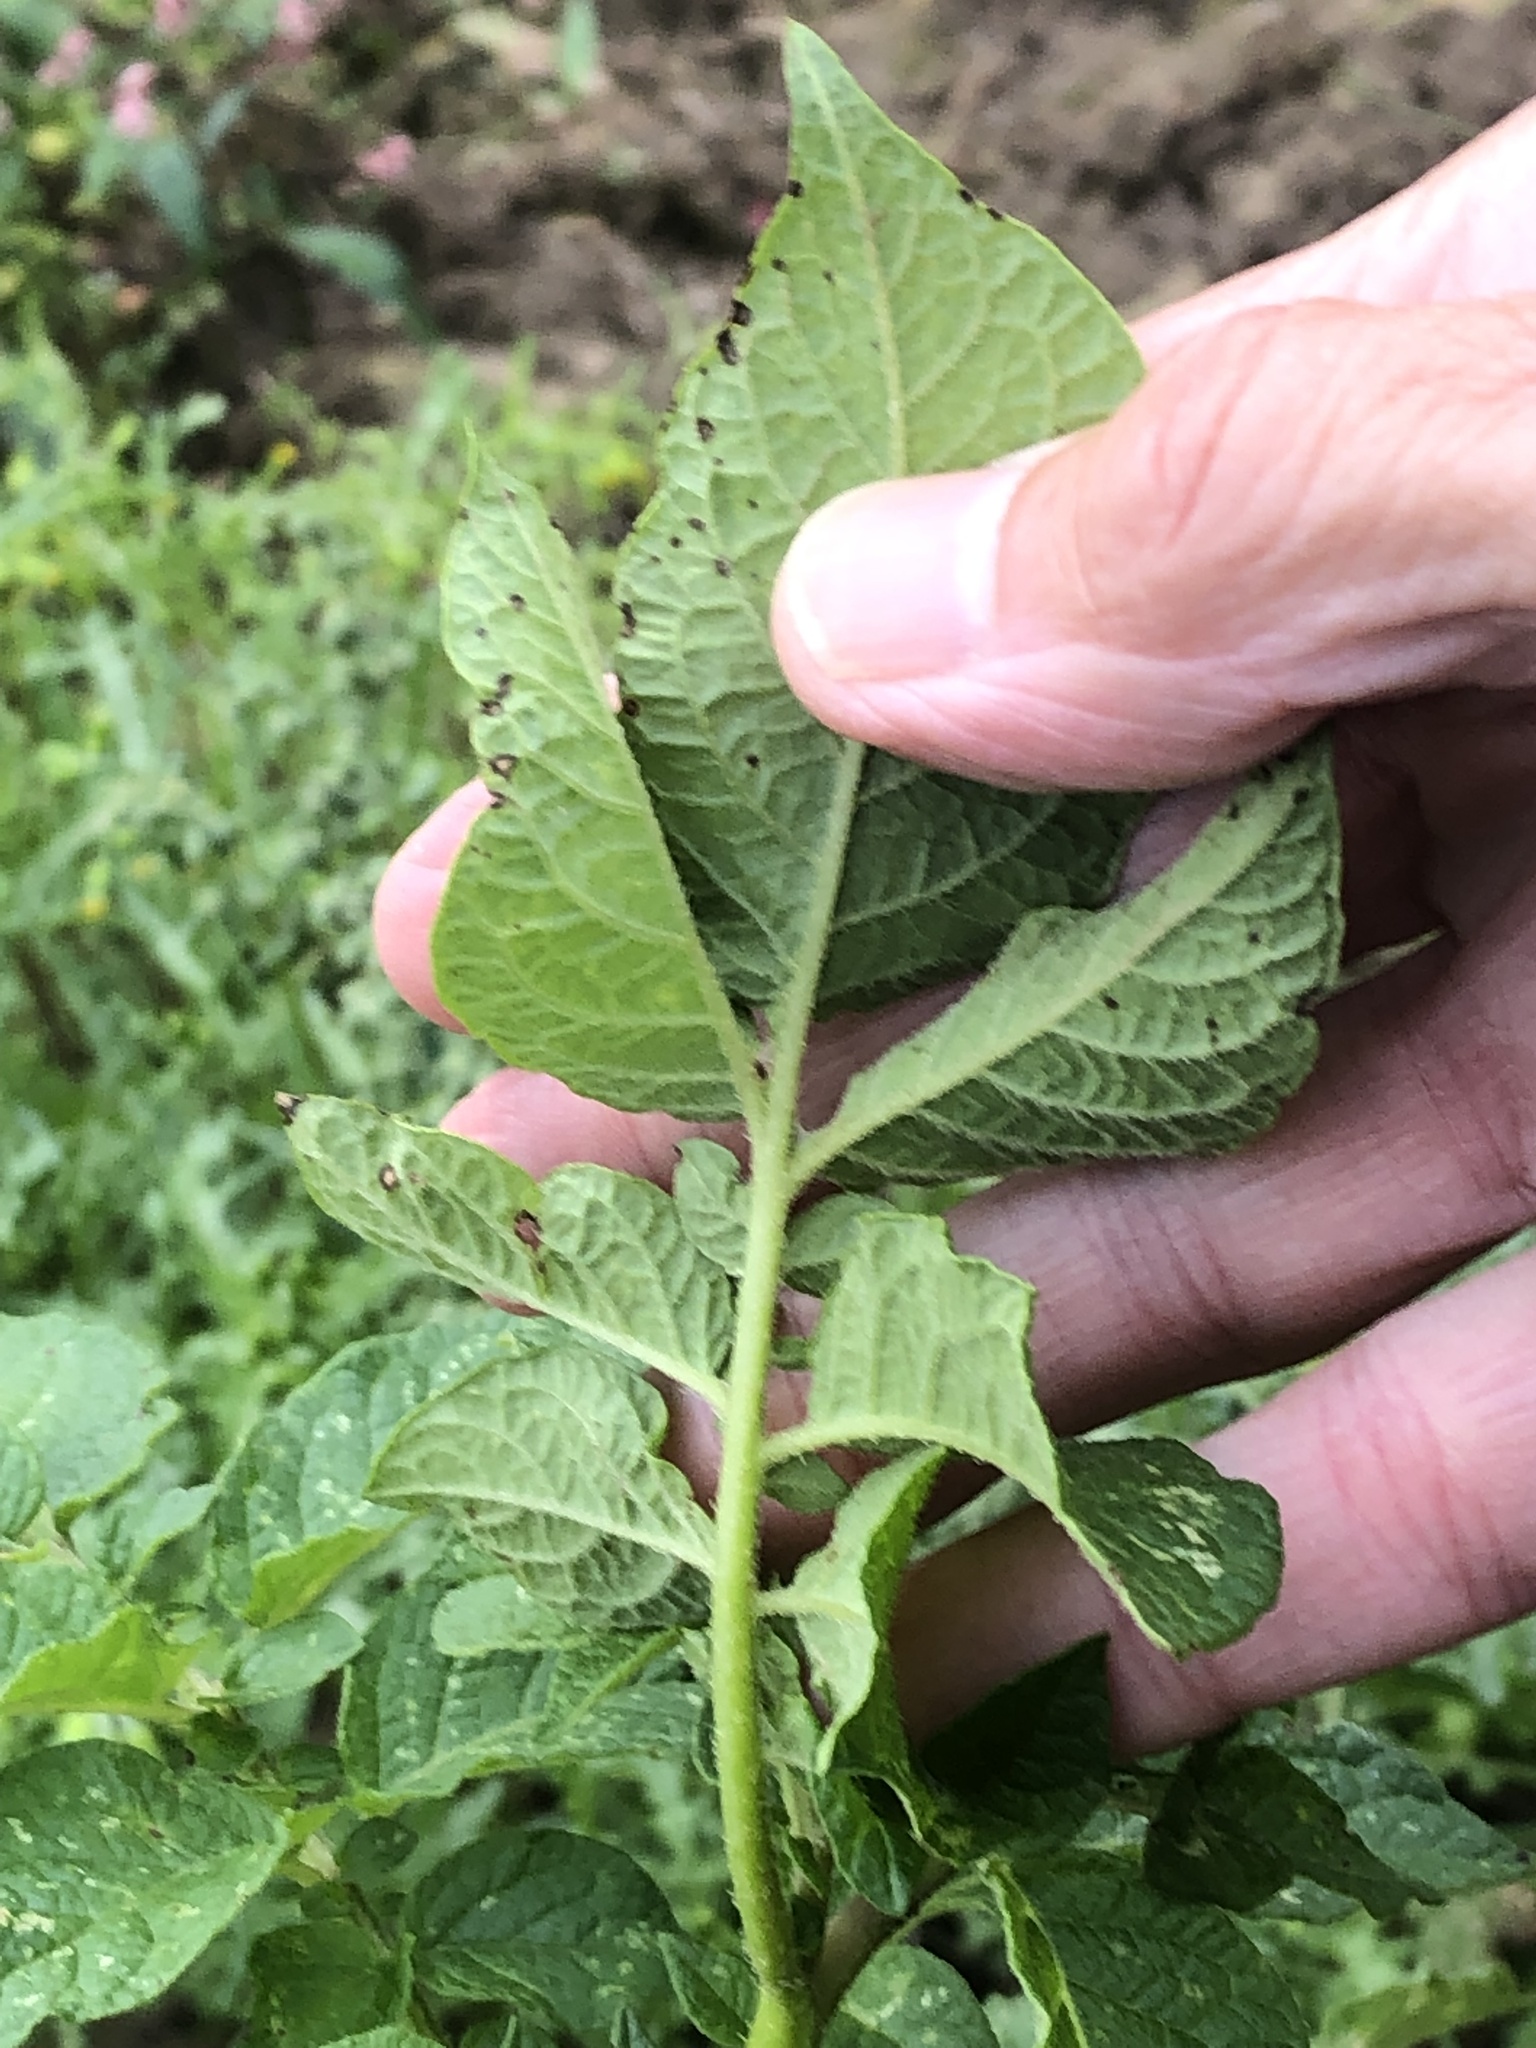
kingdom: Plantae
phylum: Tracheophyta
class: Magnoliopsida
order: Solanales
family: Solanaceae
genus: Solanum
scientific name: Solanum tuberosum
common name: Potato
